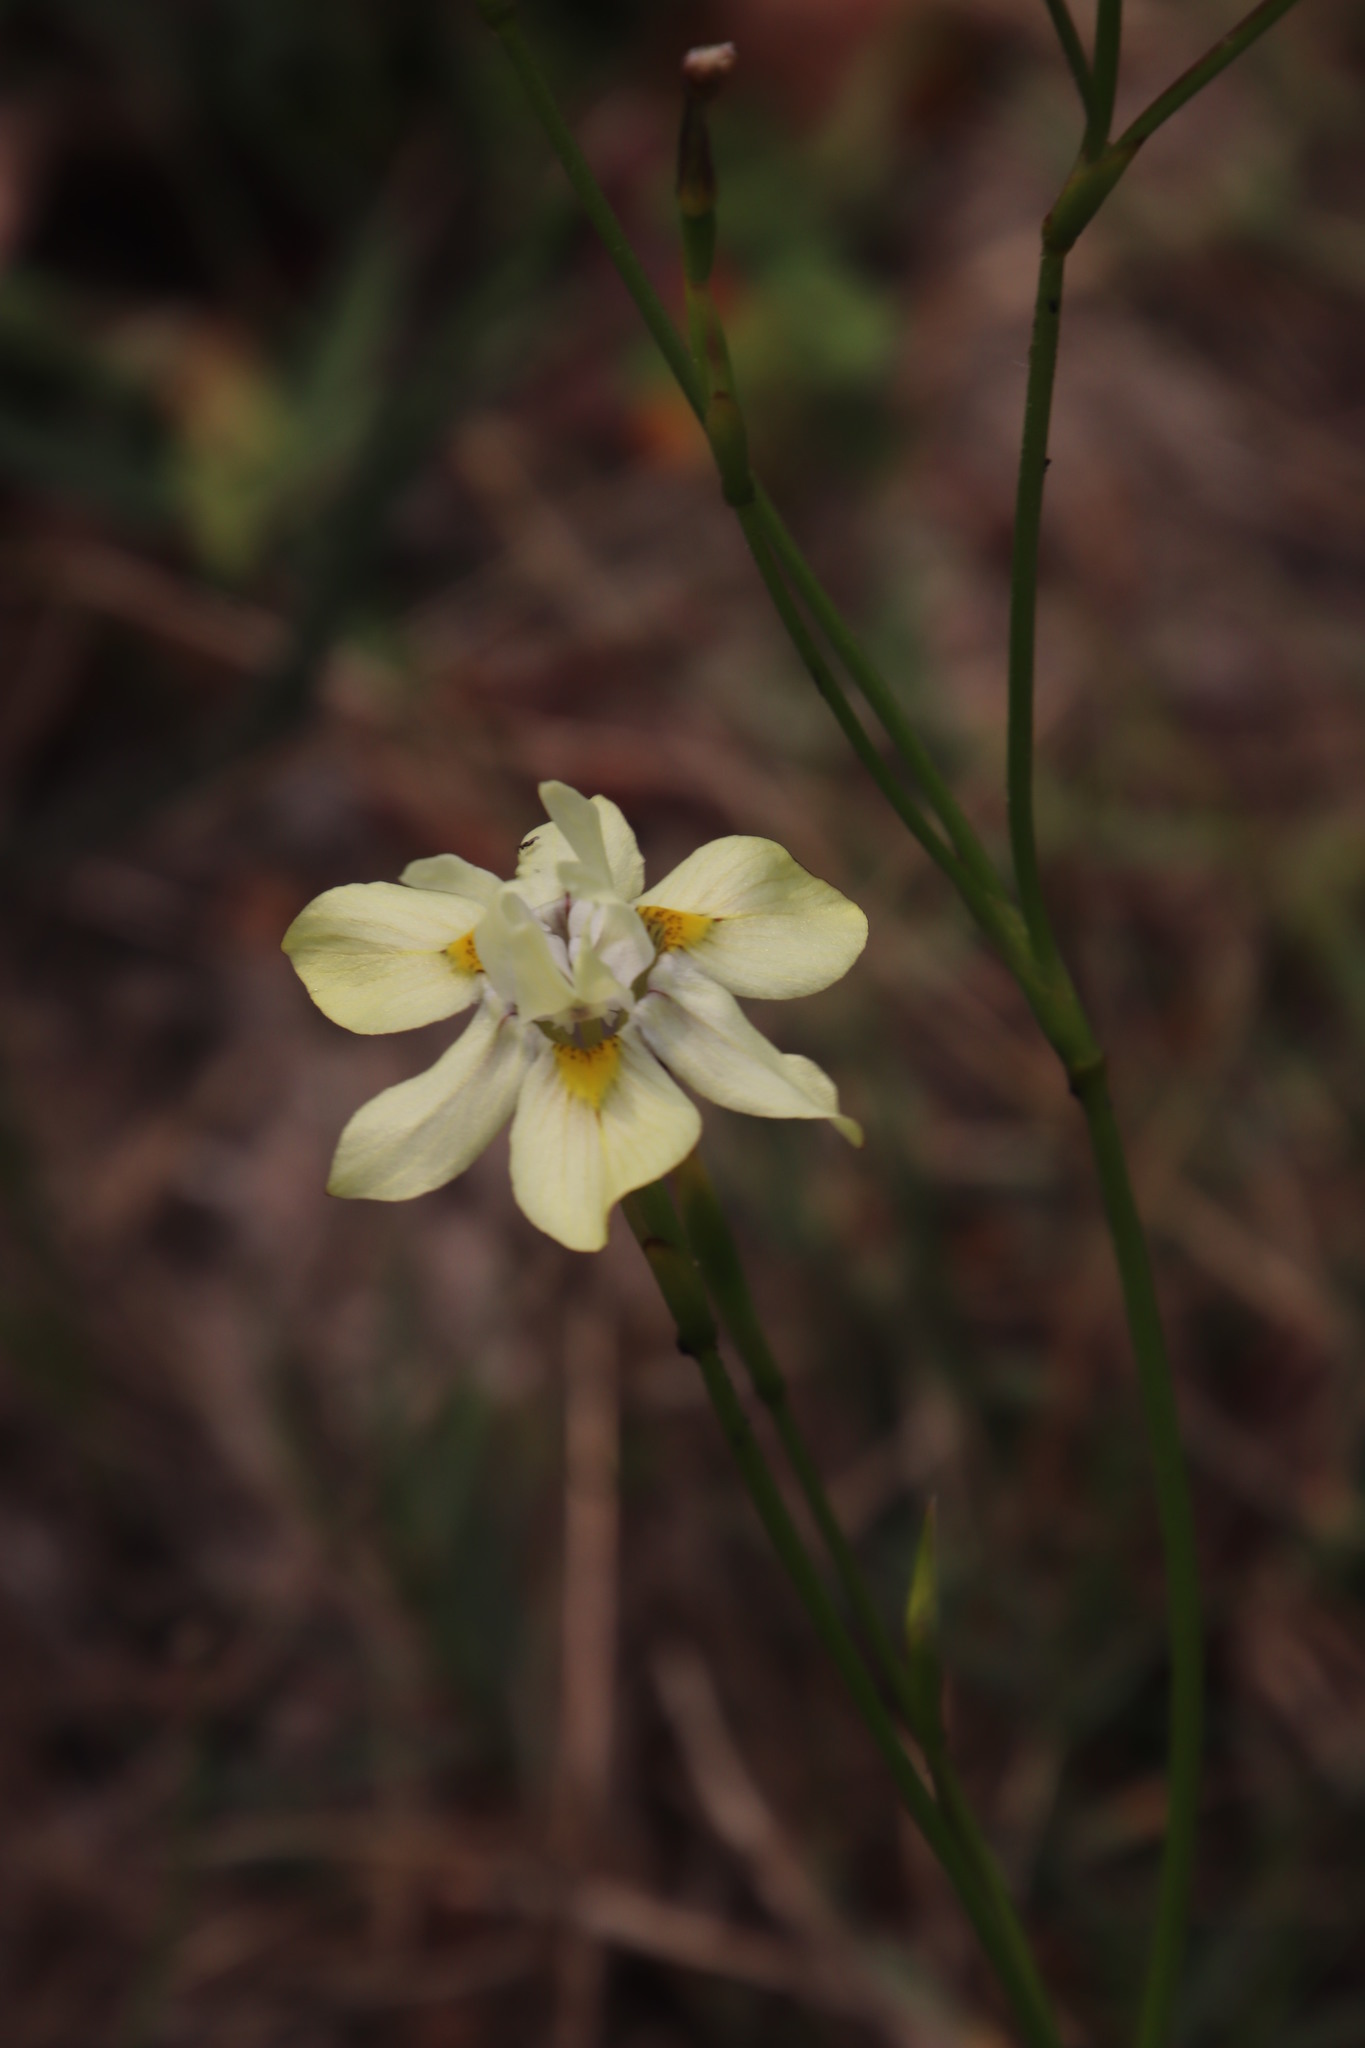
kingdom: Plantae
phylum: Tracheophyta
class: Liliopsida
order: Asparagales
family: Iridaceae
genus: Moraea
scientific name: Moraea gawleri
